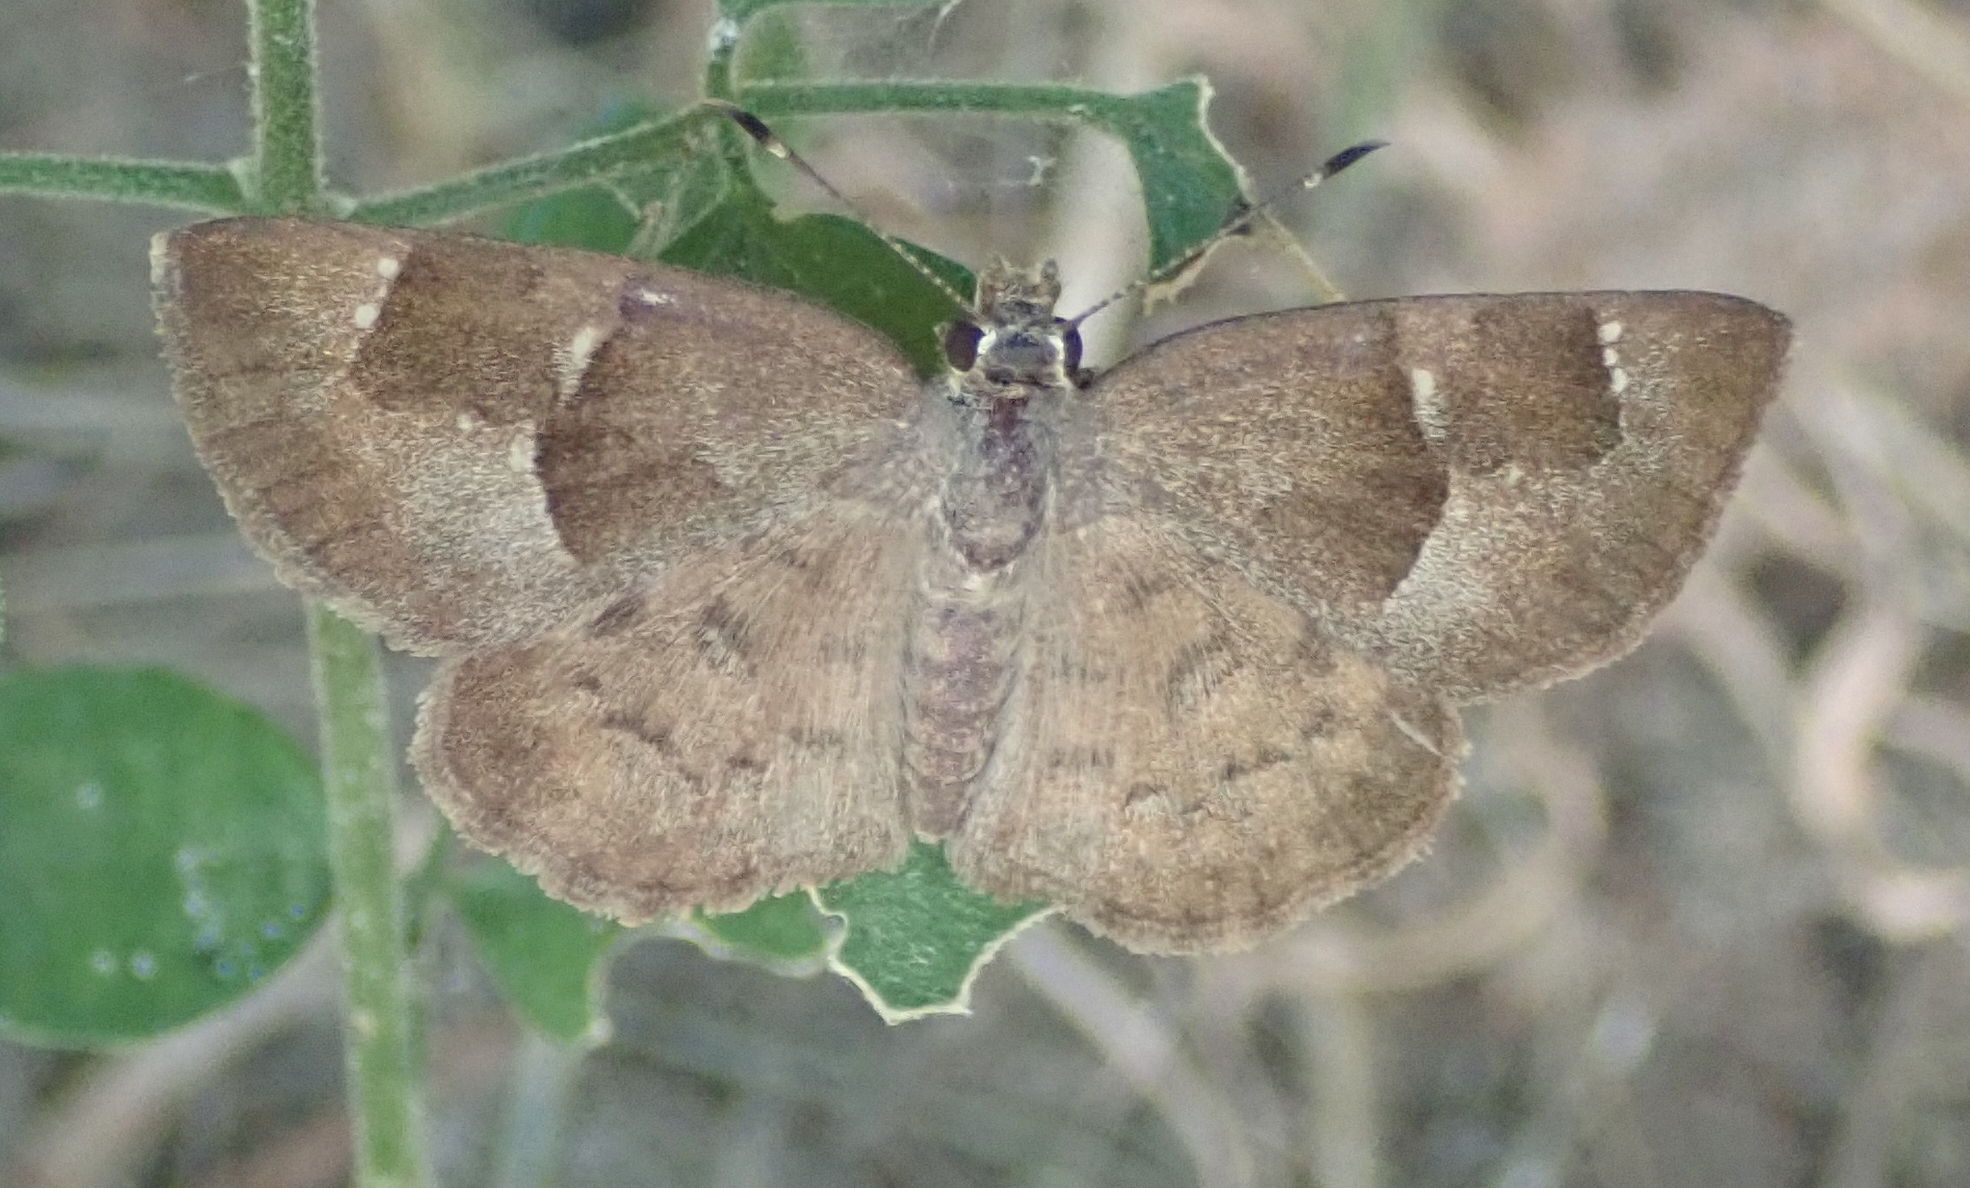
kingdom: Animalia
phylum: Arthropoda
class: Insecta
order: Lepidoptera
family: Hesperiidae
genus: Sarangesa
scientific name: Sarangesa phidyle
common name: Small elfin
